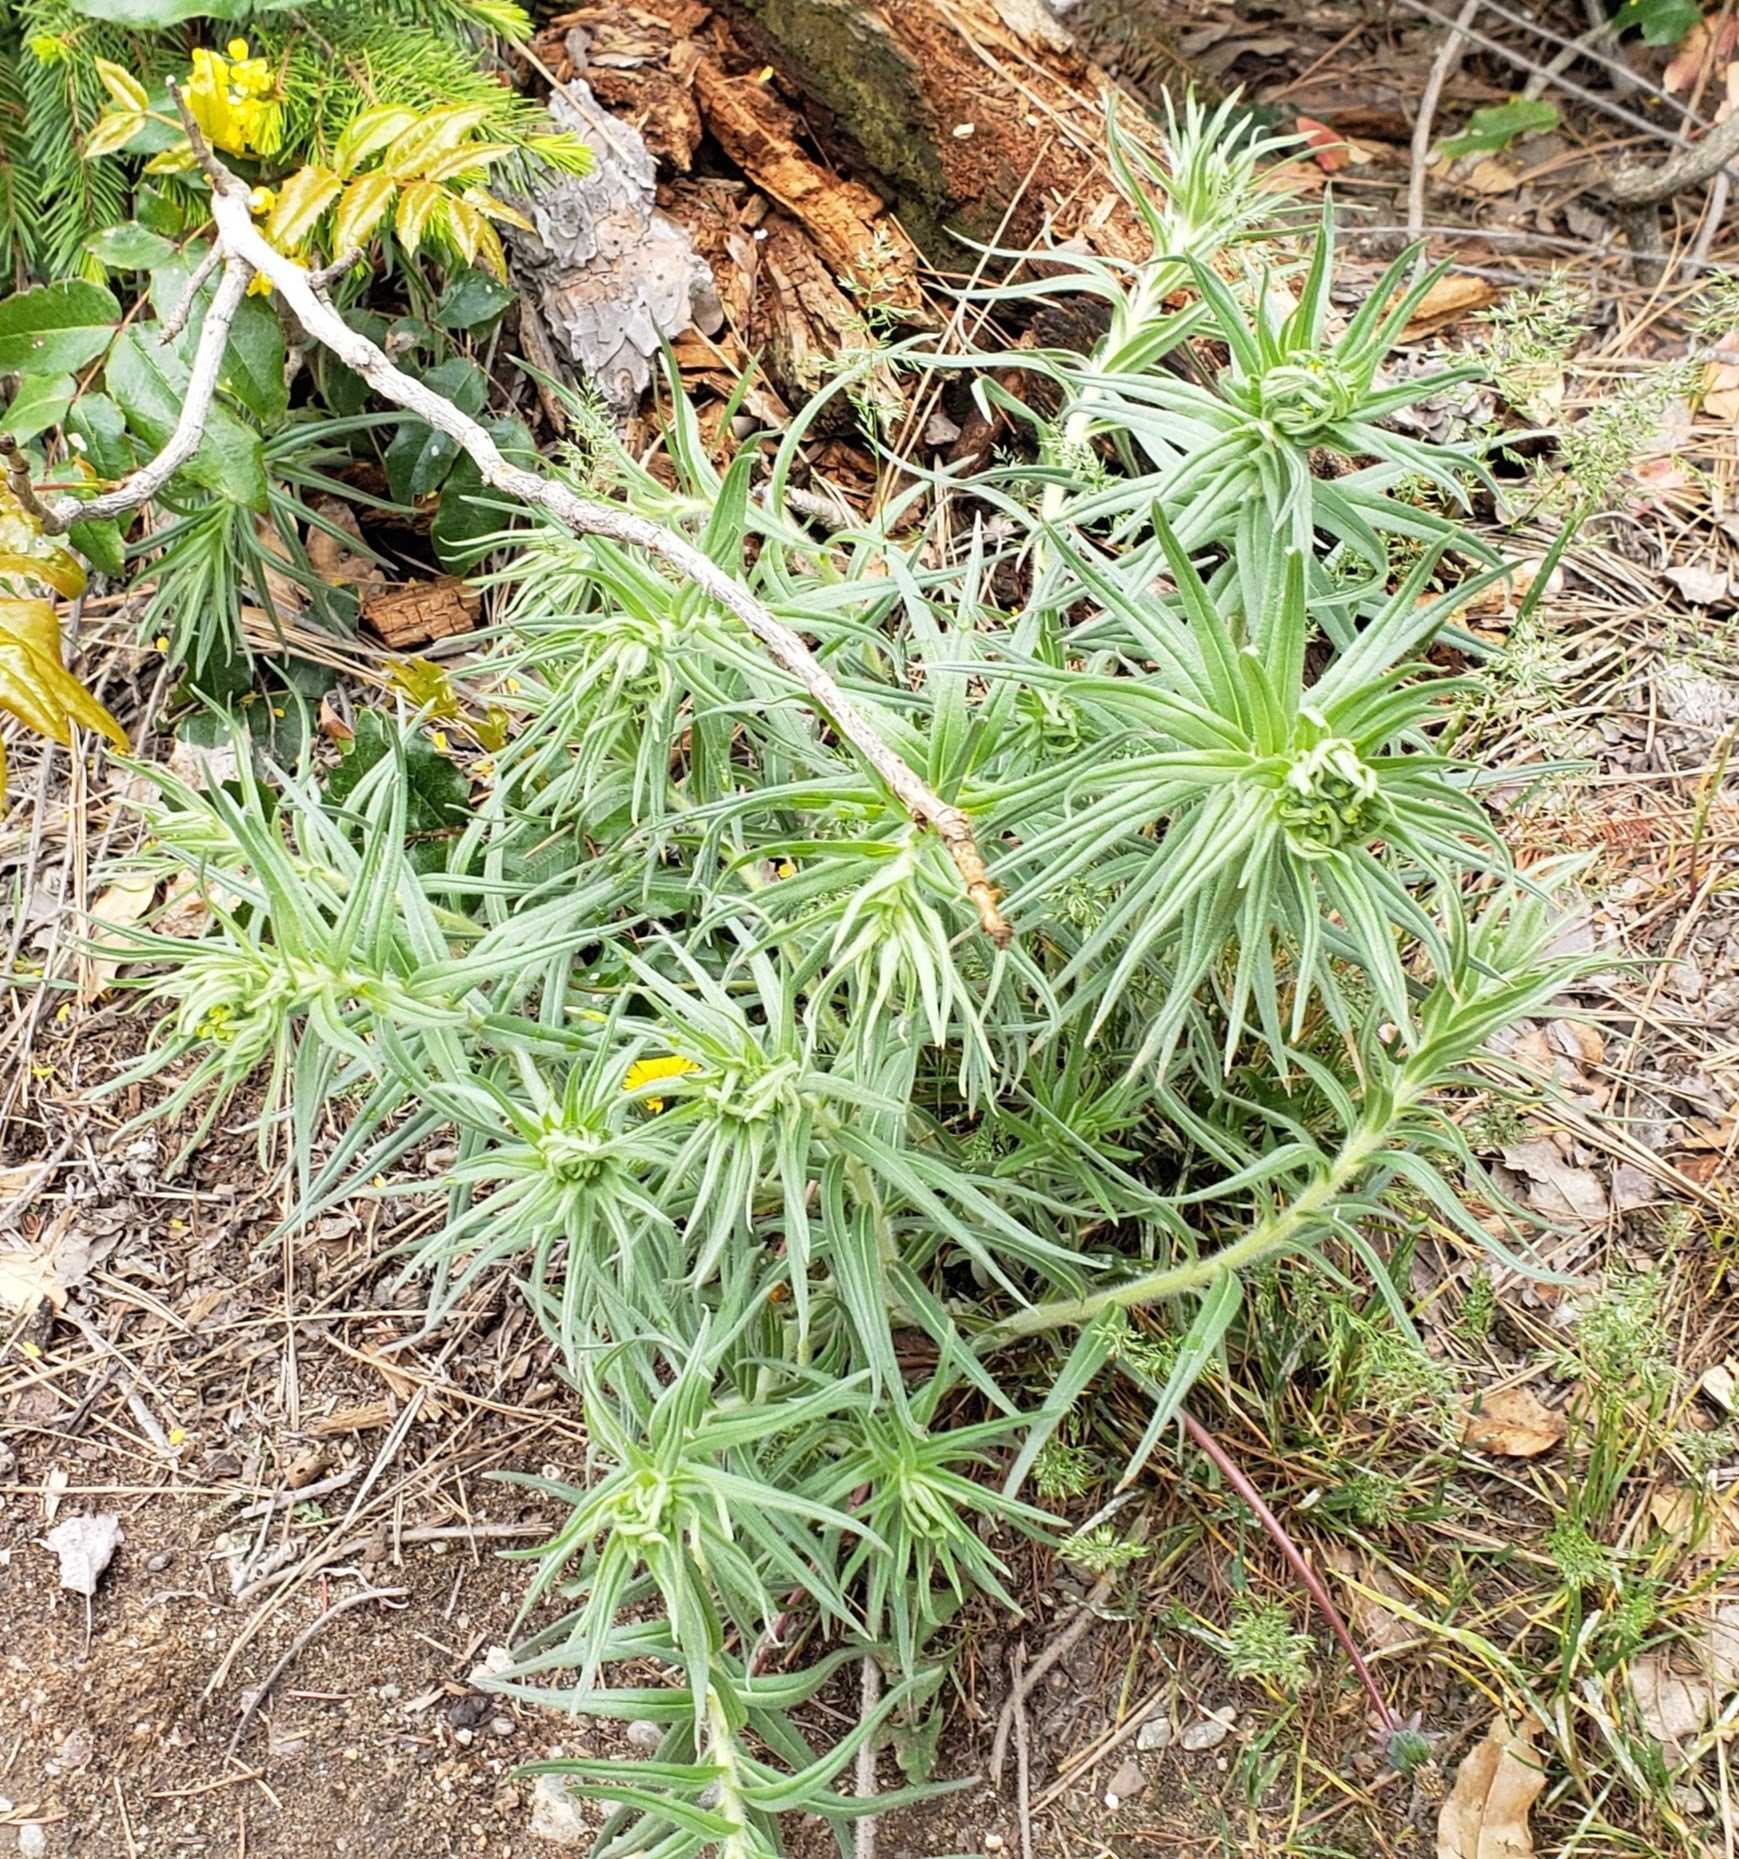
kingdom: Plantae
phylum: Tracheophyta
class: Magnoliopsida
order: Boraginales
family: Boraginaceae
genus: Lithospermum
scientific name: Lithospermum ruderale
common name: Western gromwell
